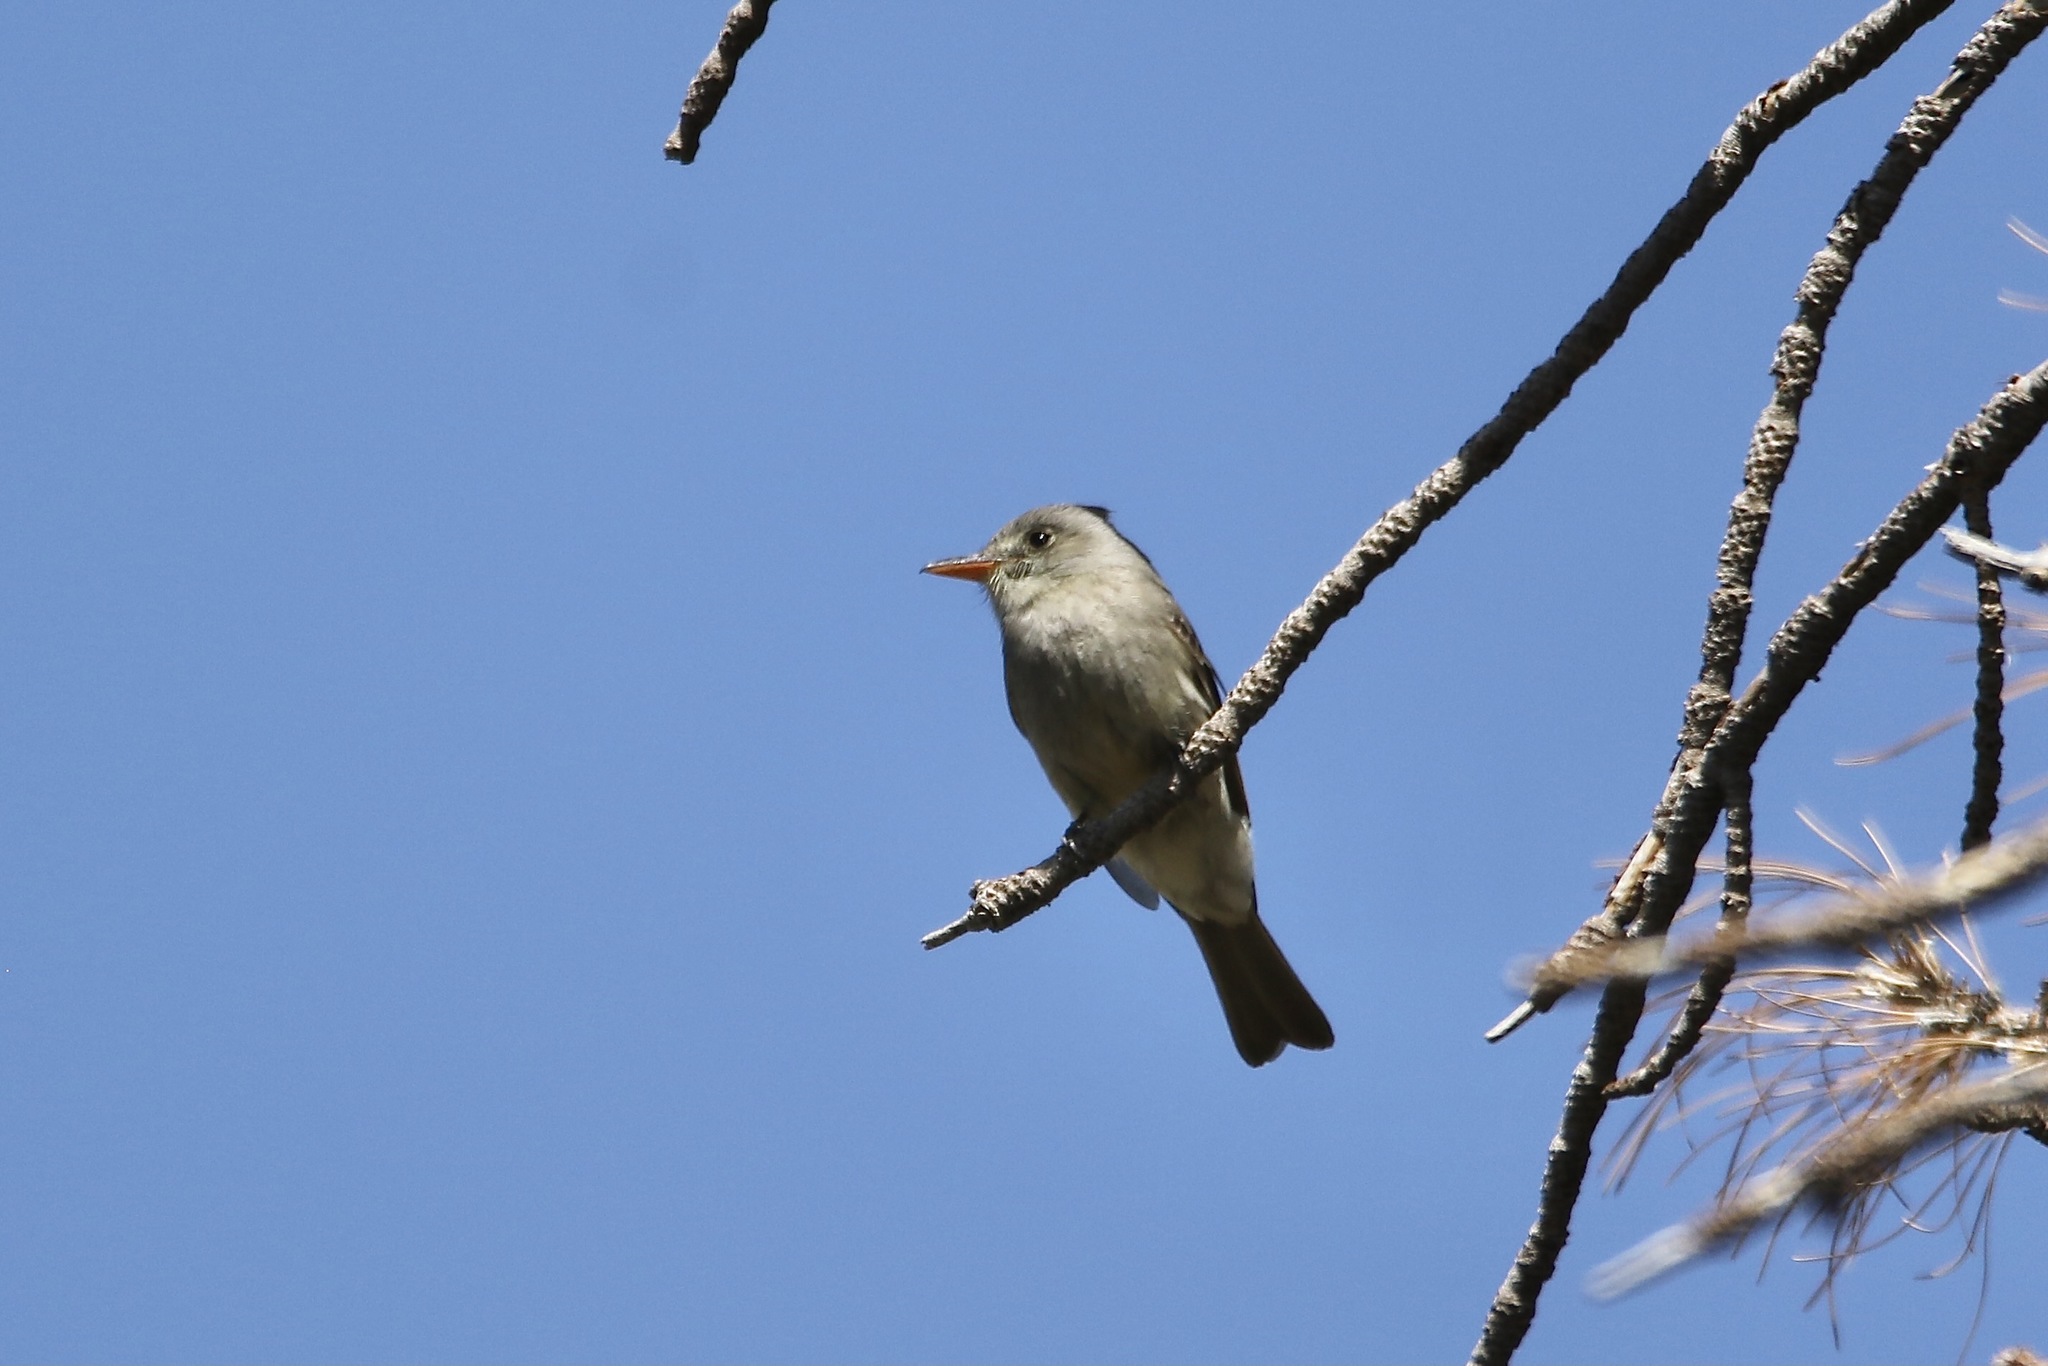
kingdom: Animalia
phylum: Chordata
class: Aves
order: Passeriformes
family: Tyrannidae
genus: Contopus
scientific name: Contopus pertinax
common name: Greater pewee
